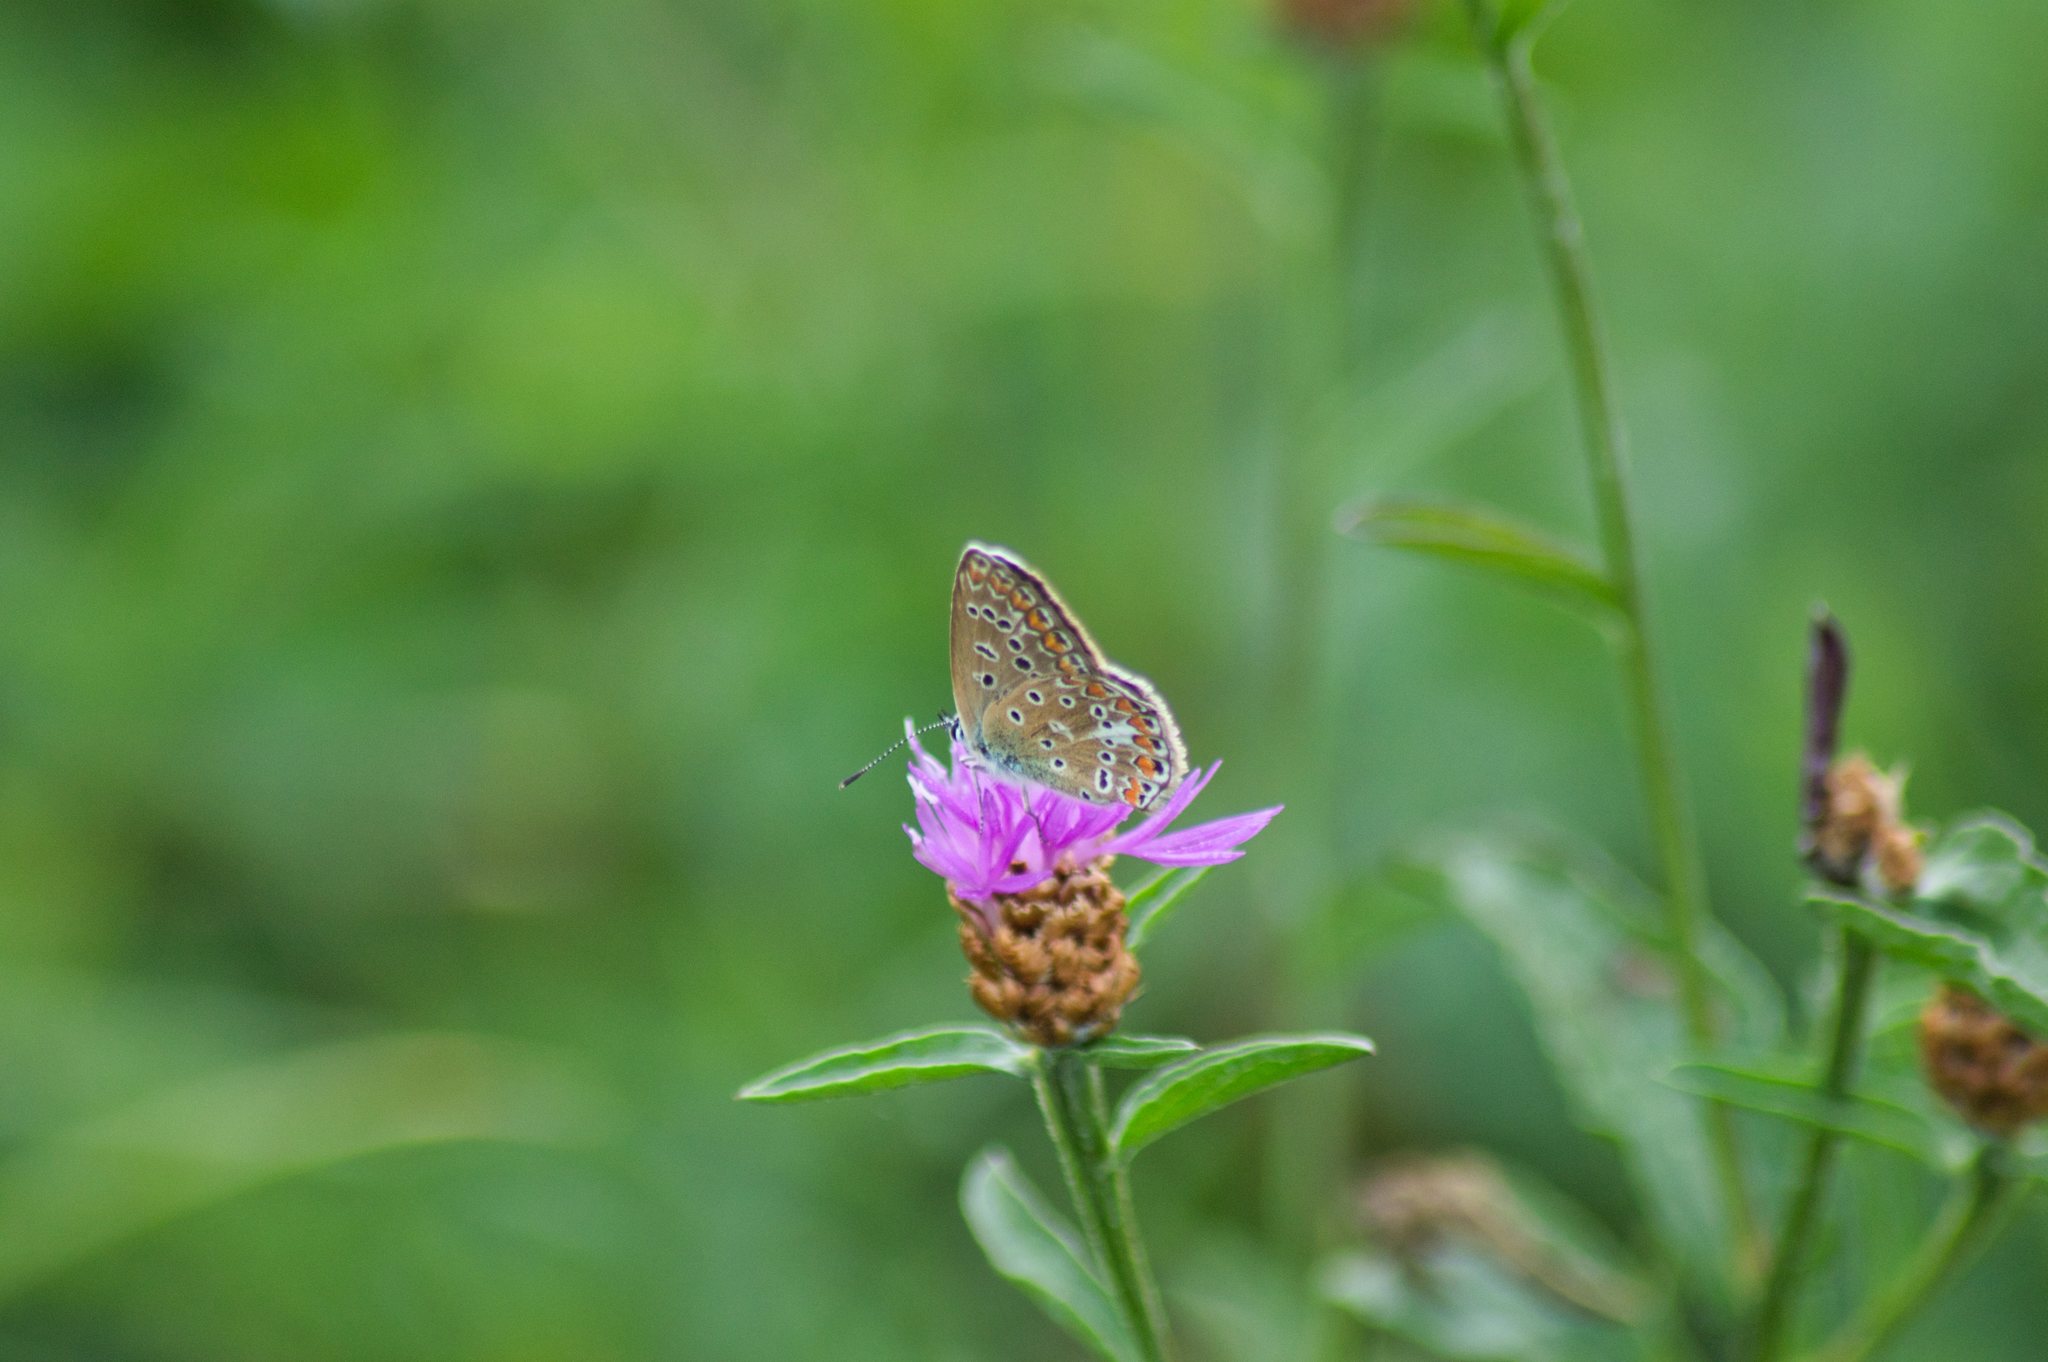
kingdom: Animalia
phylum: Arthropoda
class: Insecta
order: Lepidoptera
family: Lycaenidae
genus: Polyommatus
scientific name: Polyommatus icarus
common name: Common blue
